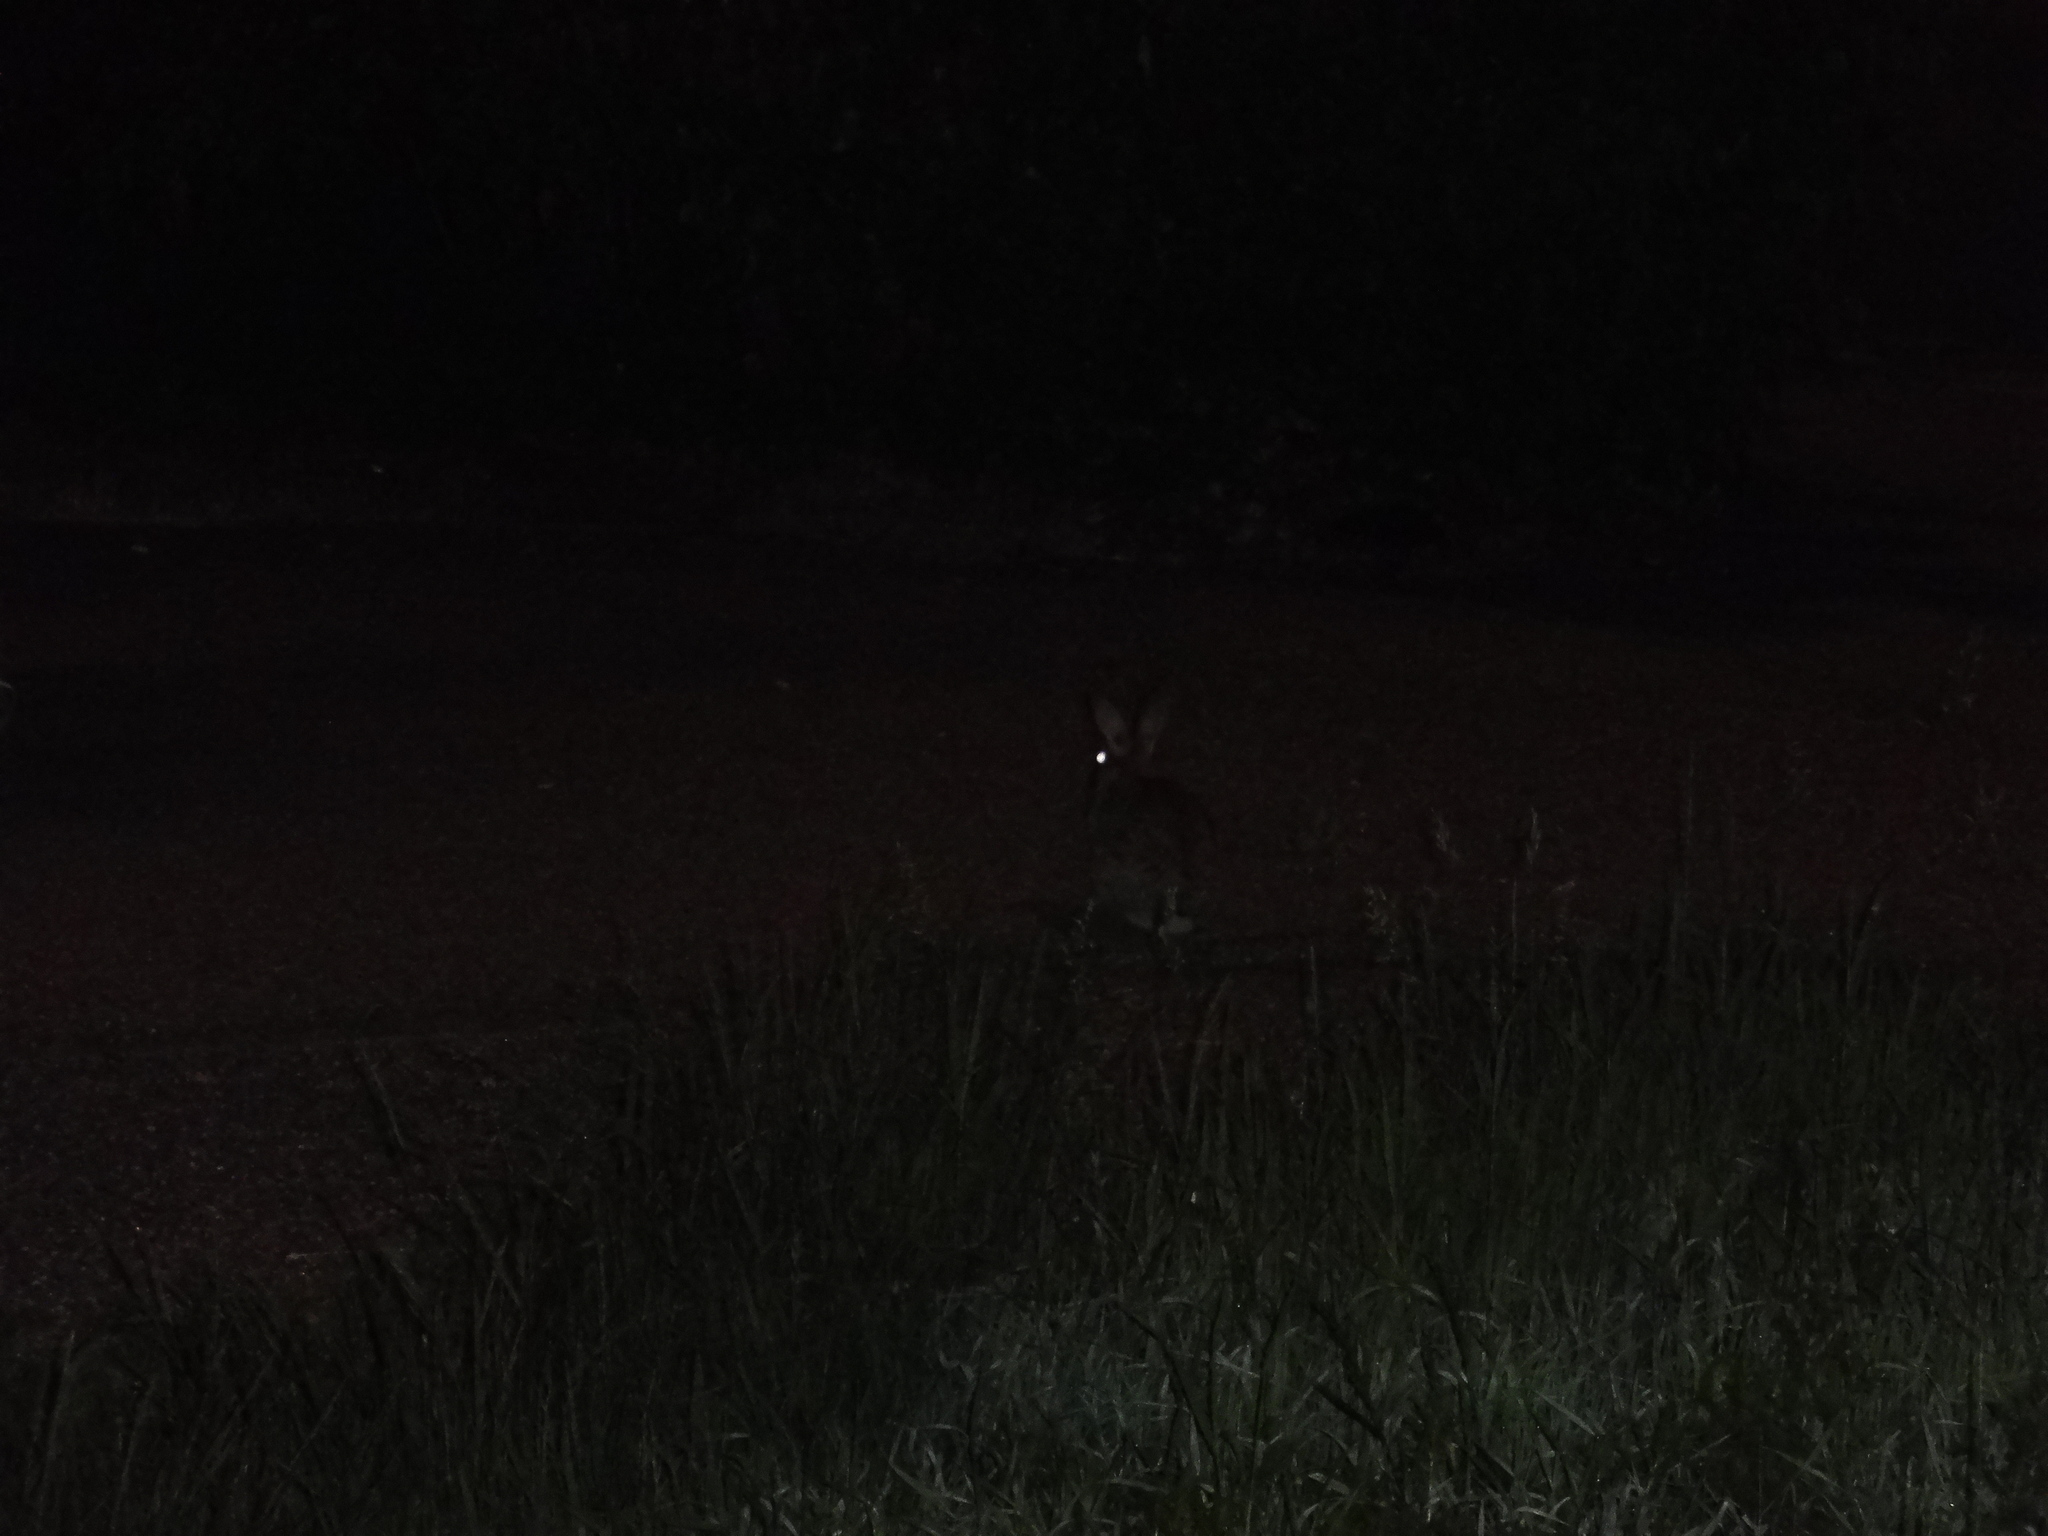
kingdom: Animalia
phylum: Chordata
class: Mammalia
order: Lagomorpha
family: Leporidae
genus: Oryctolagus
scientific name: Oryctolagus cuniculus
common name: European rabbit
